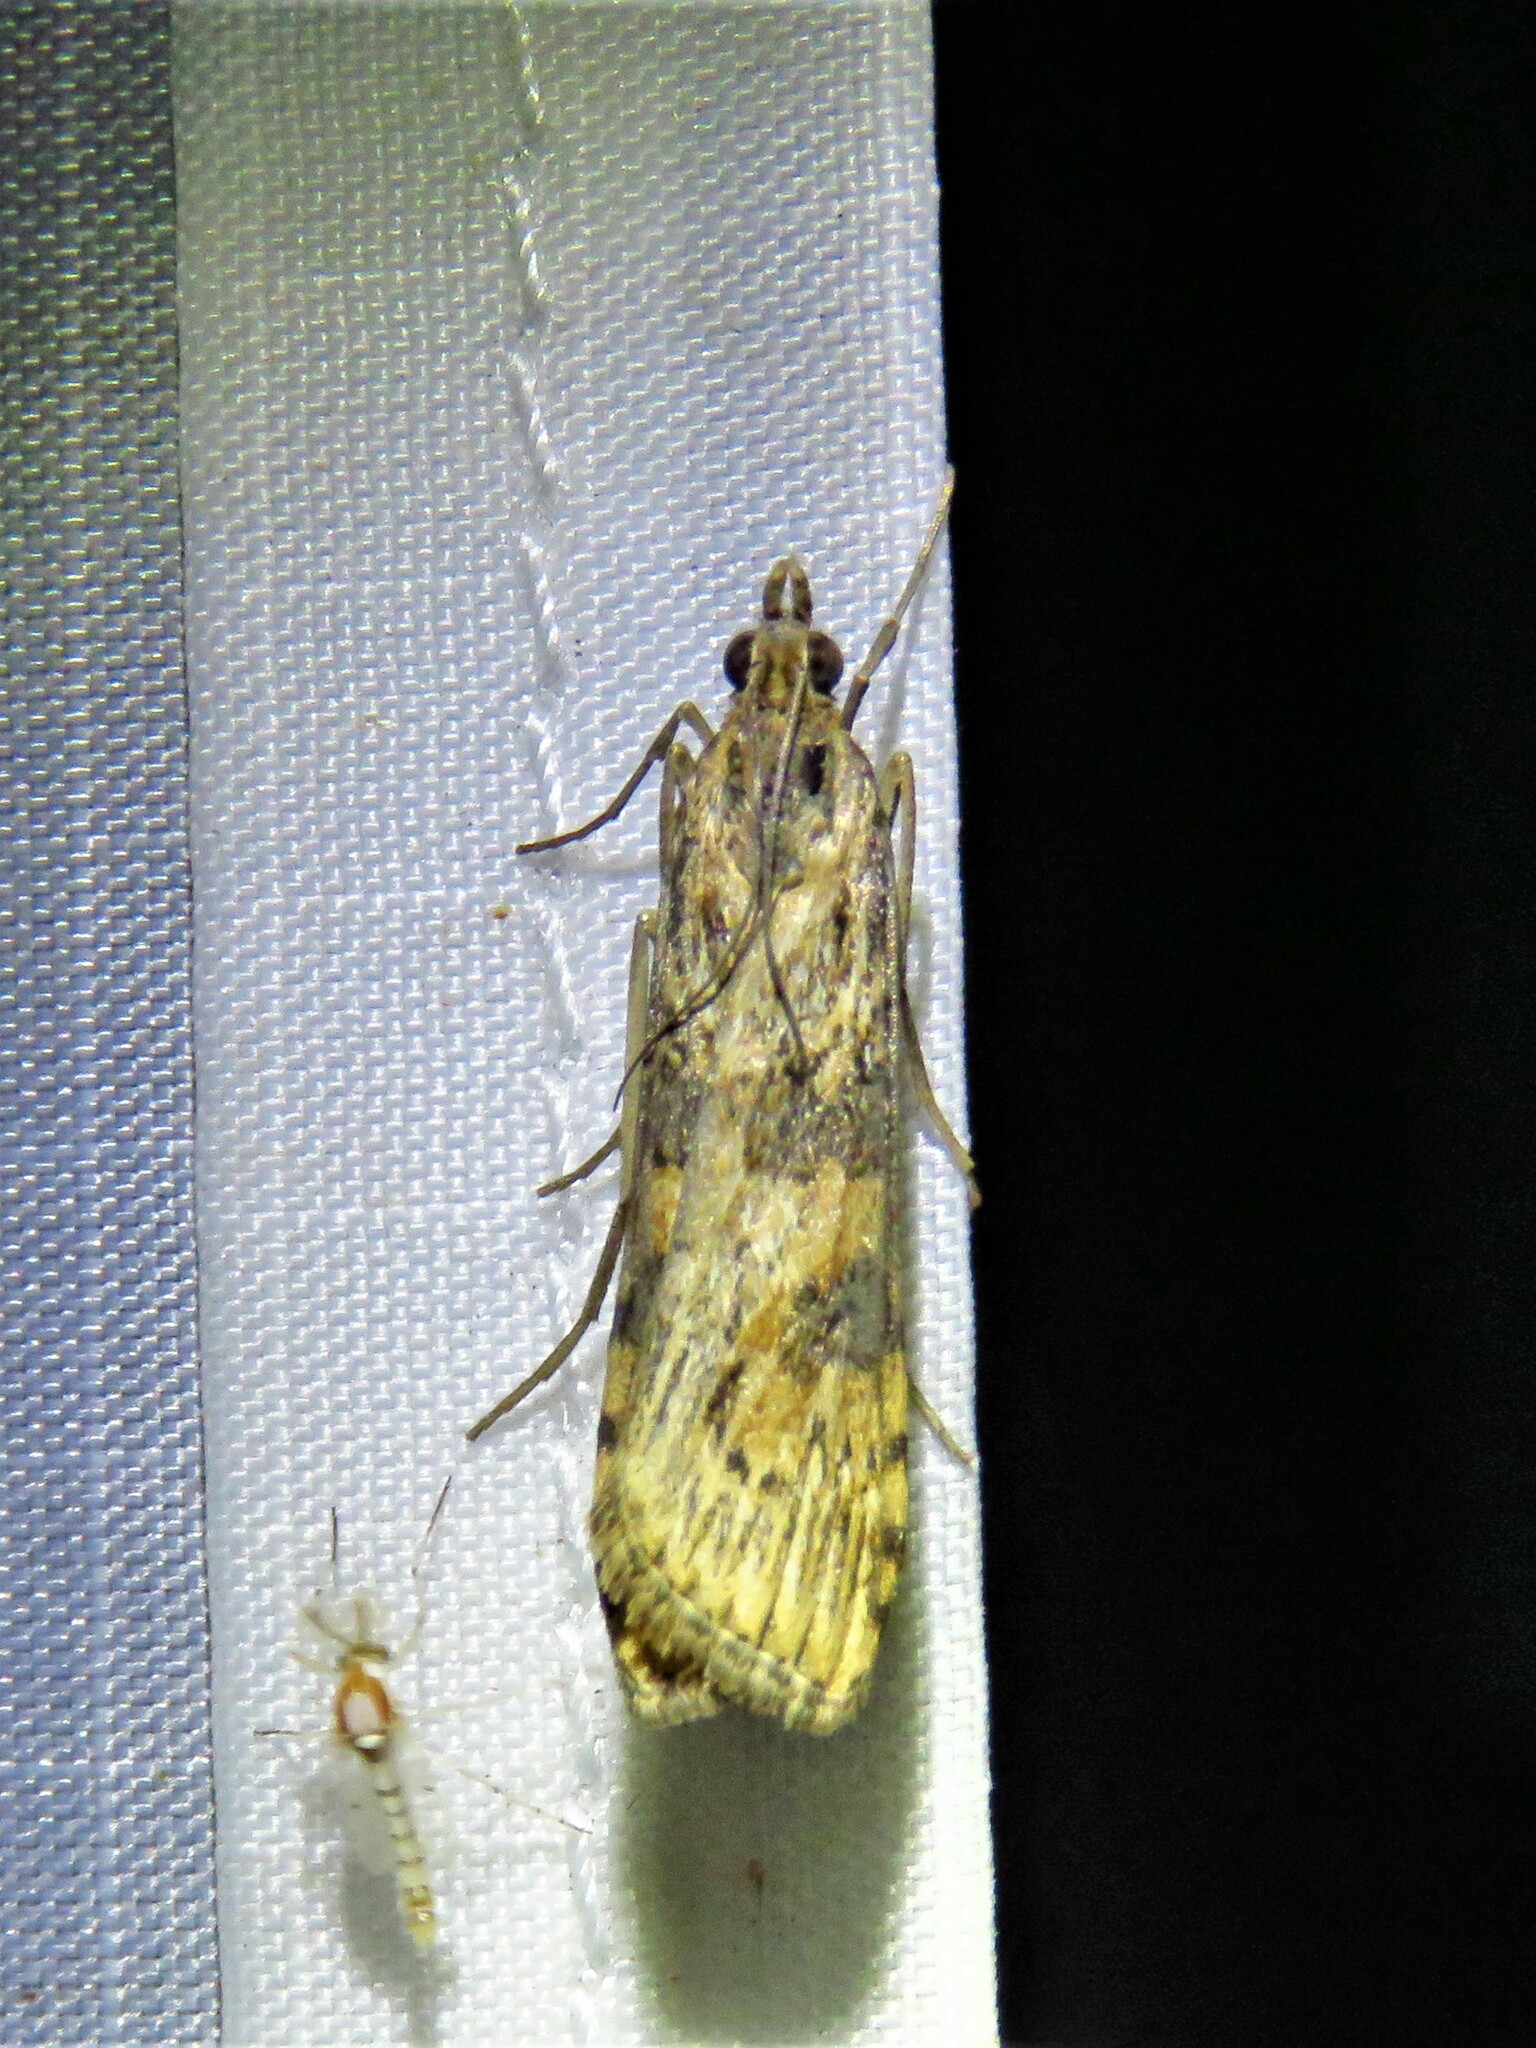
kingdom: Animalia
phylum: Arthropoda
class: Insecta
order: Lepidoptera
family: Crambidae
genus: Nomophila
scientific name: Nomophila nearctica
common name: American rush veneer
